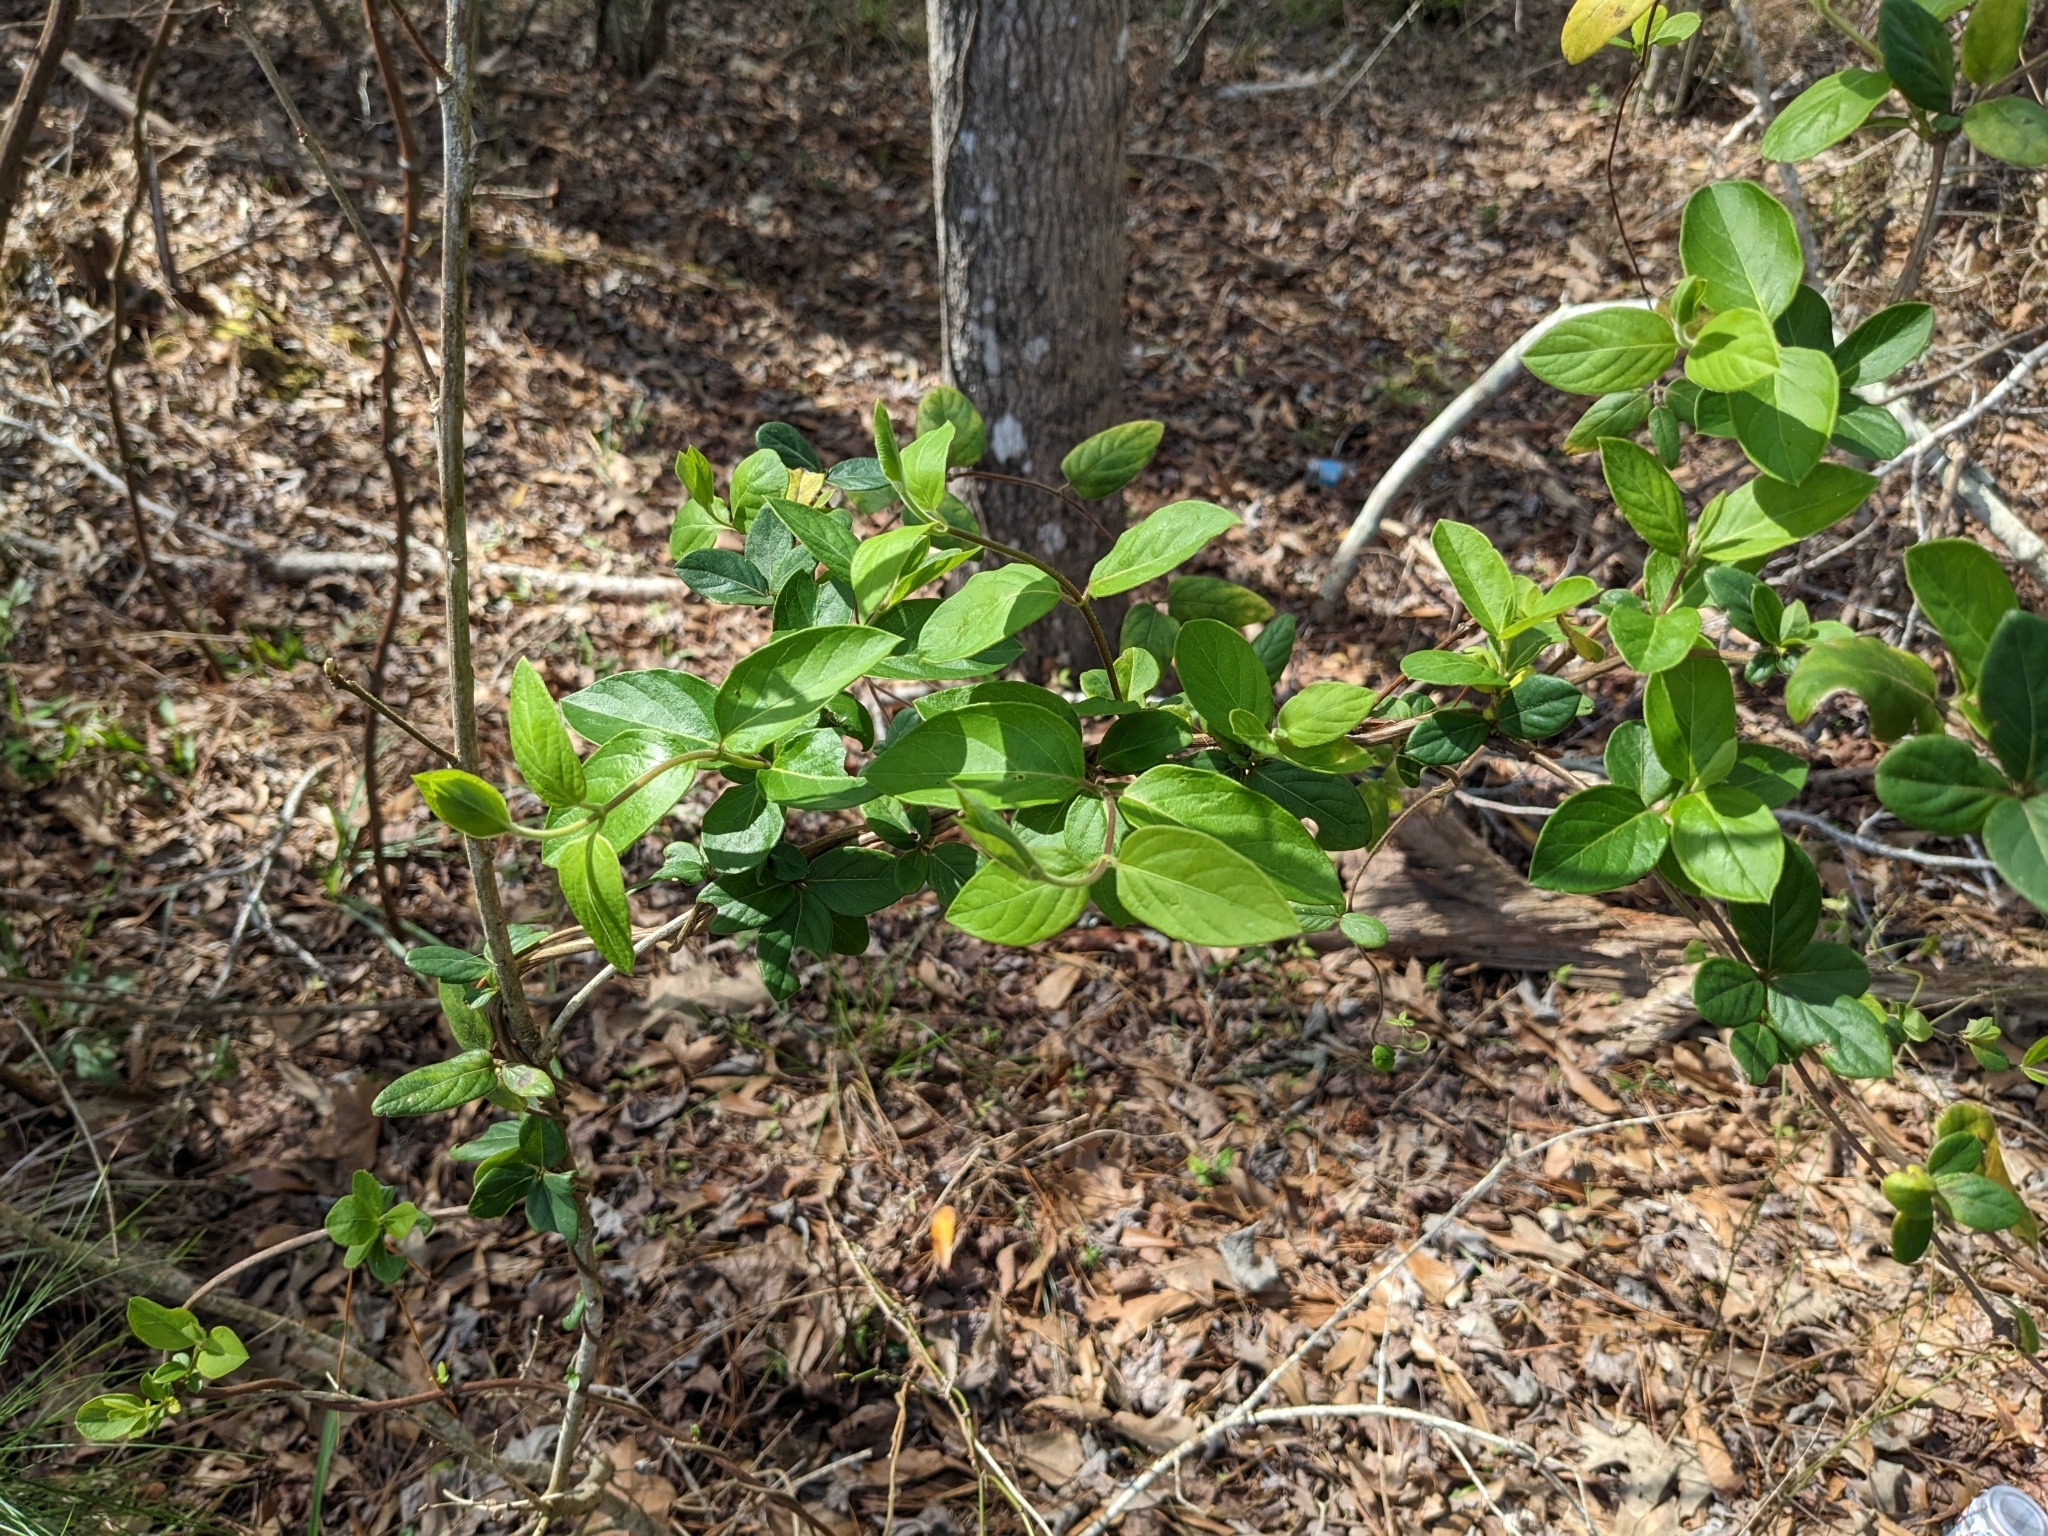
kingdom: Plantae
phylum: Tracheophyta
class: Magnoliopsida
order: Dipsacales
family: Caprifoliaceae
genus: Lonicera
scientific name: Lonicera japonica
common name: Japanese honeysuckle
